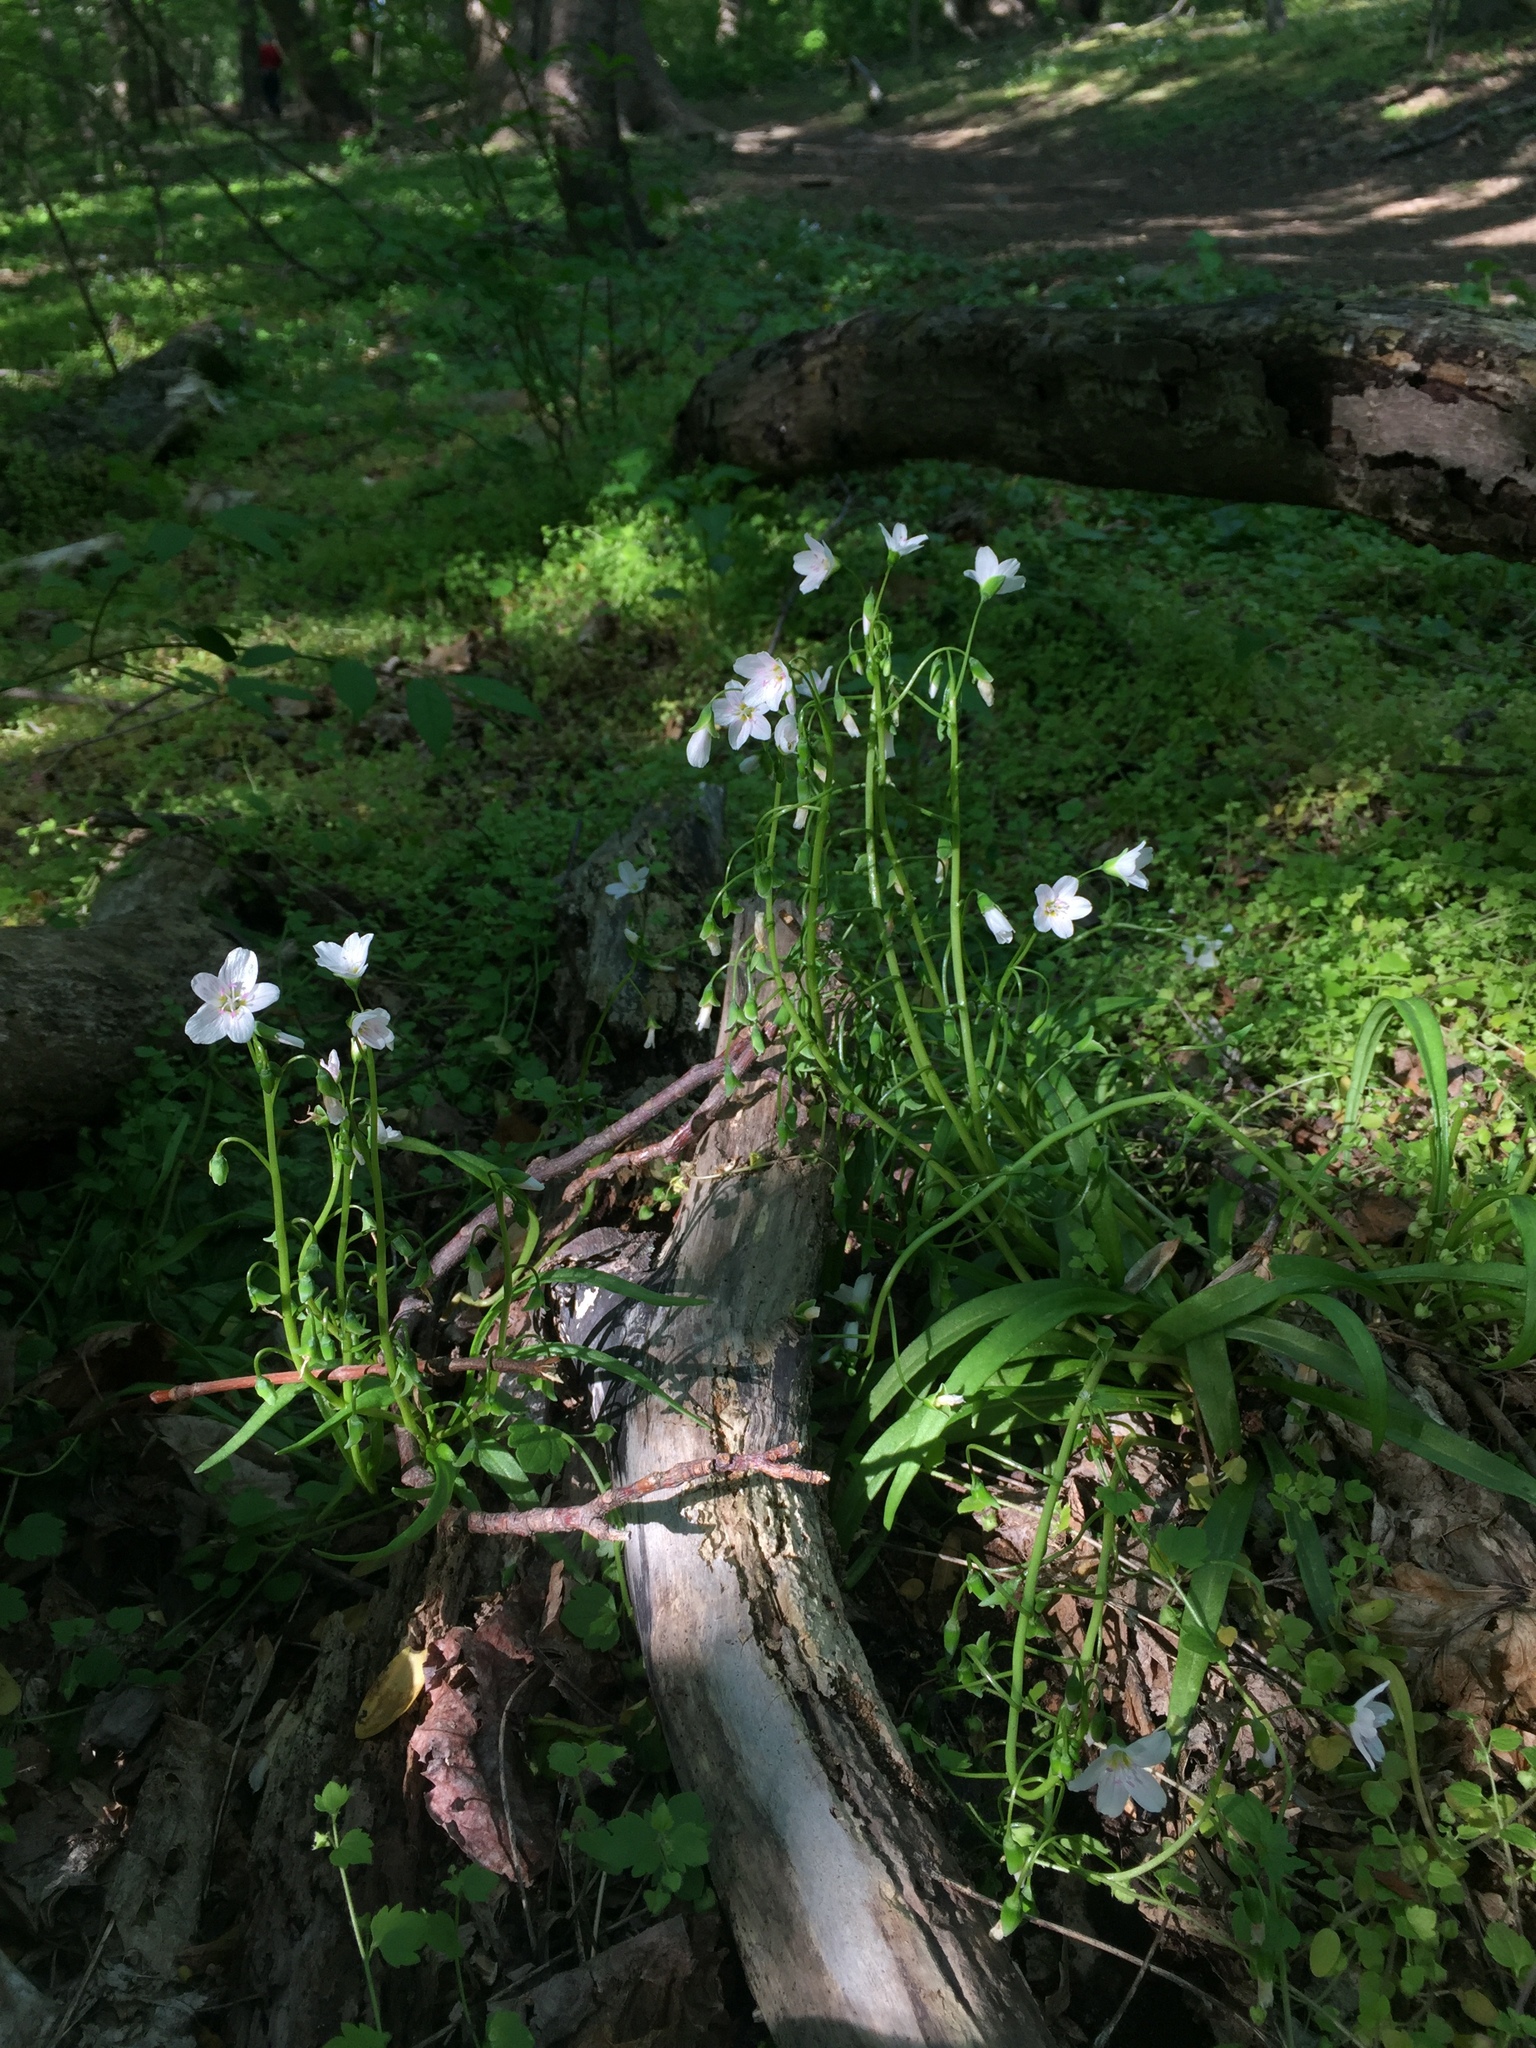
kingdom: Plantae
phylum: Tracheophyta
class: Magnoliopsida
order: Caryophyllales
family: Montiaceae
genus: Claytonia
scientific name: Claytonia virginica
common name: Virginia springbeauty
